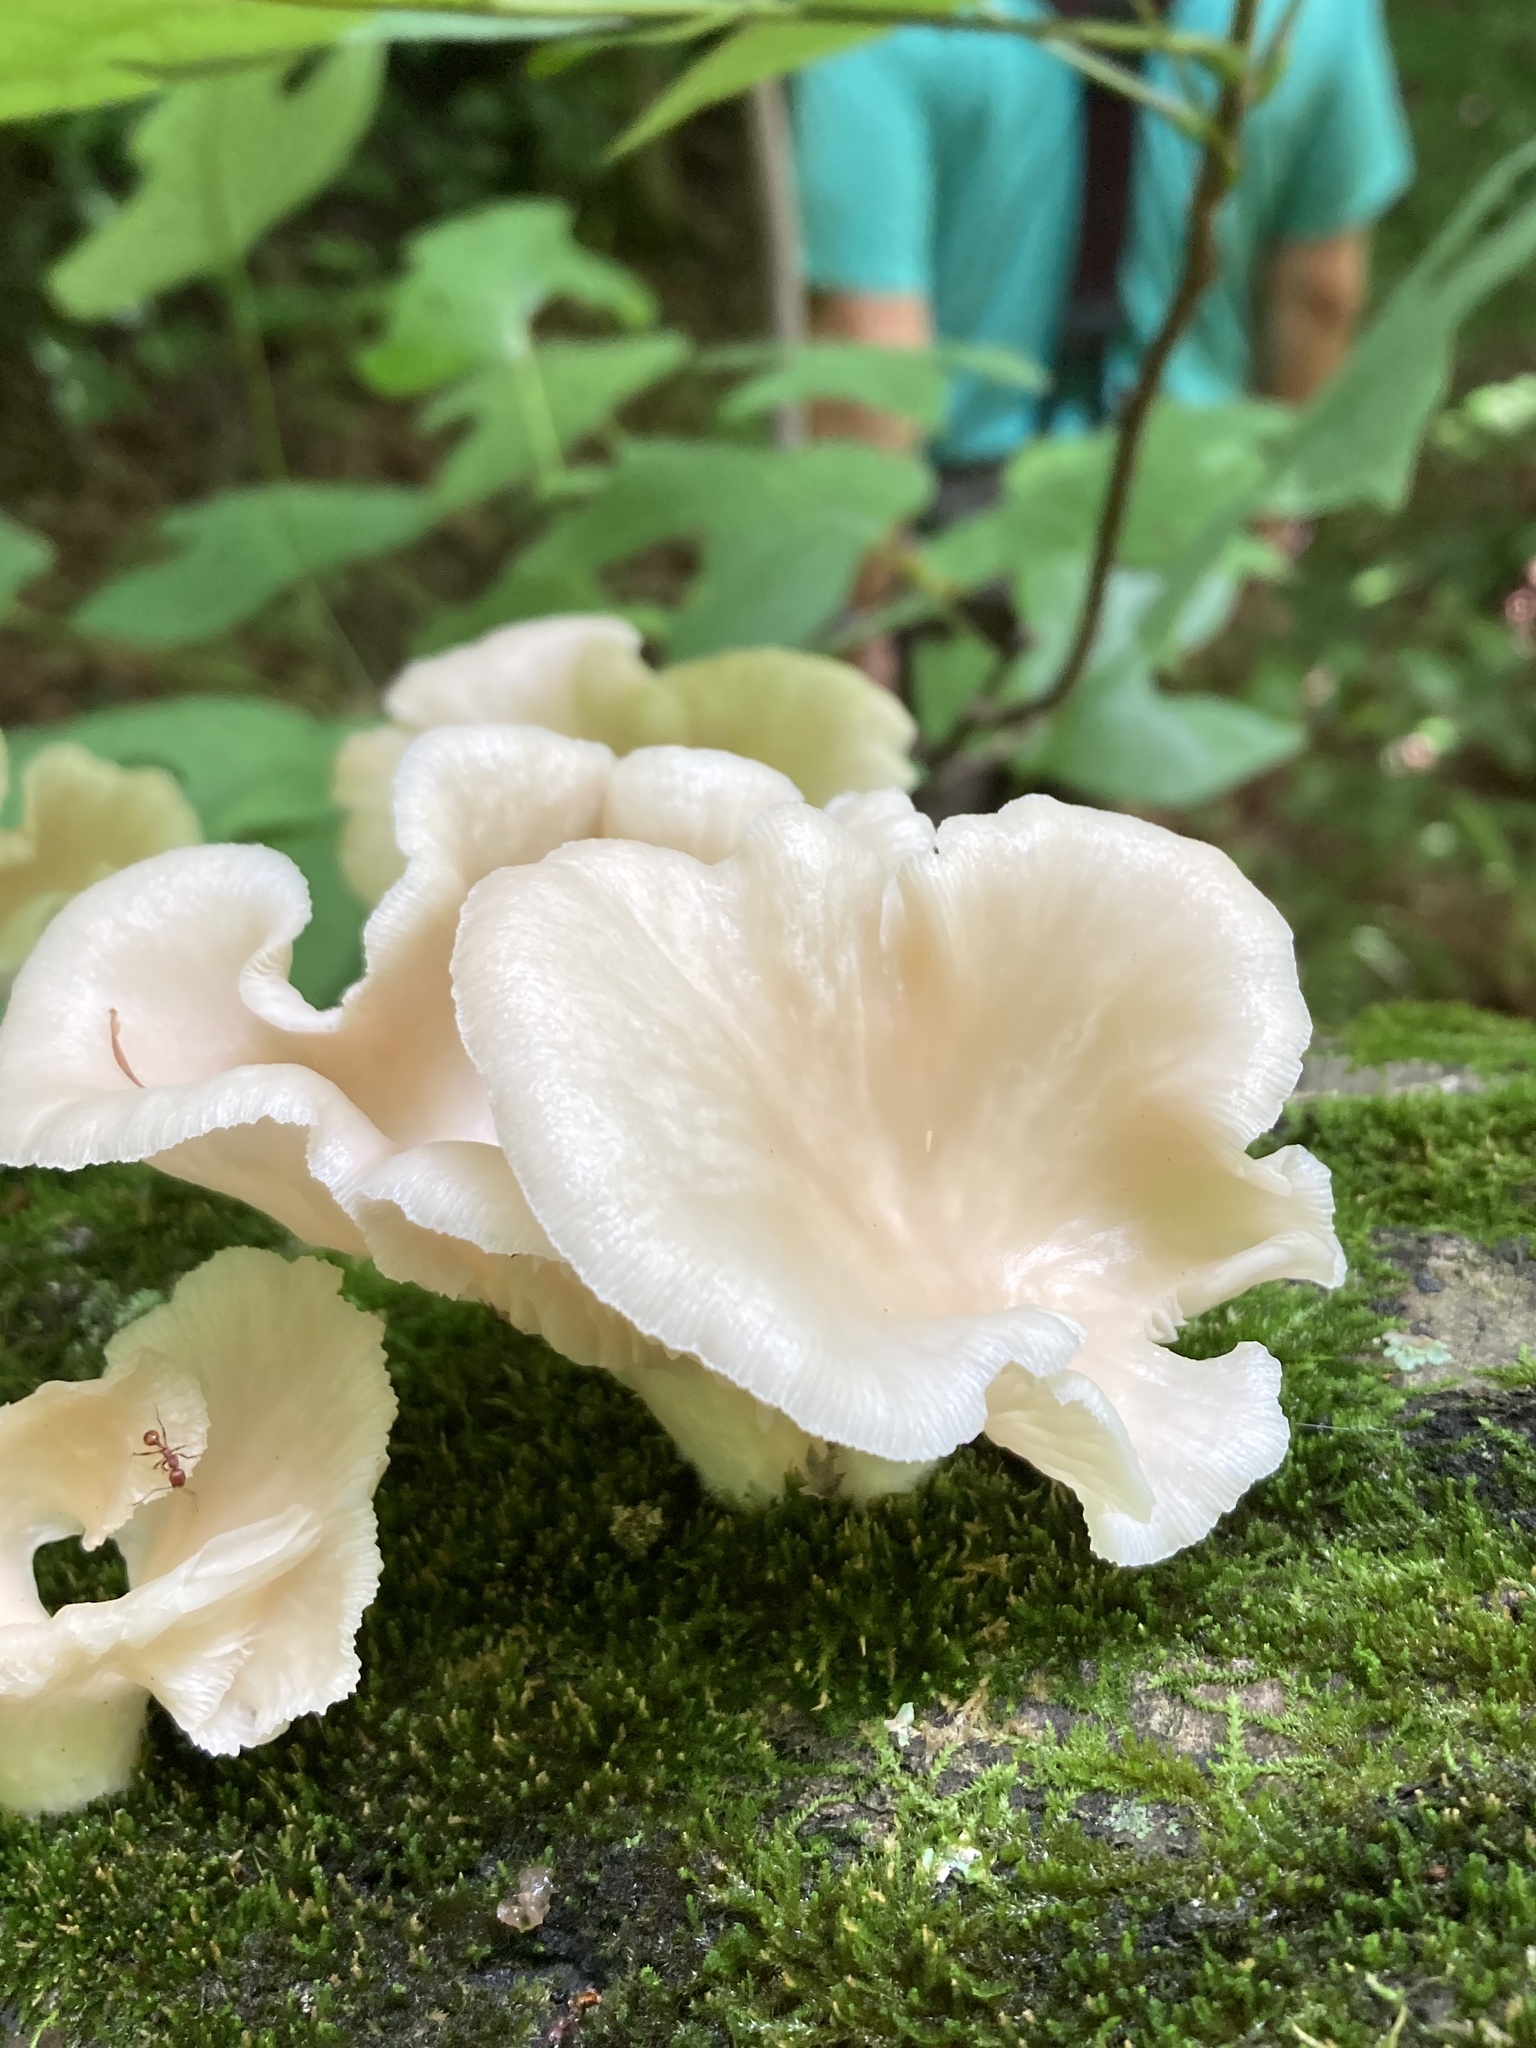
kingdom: Fungi
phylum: Basidiomycota
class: Agaricomycetes
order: Agaricales
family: Pleurotaceae
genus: Pleurotus
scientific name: Pleurotus pulmonarius
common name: Pale oyster
